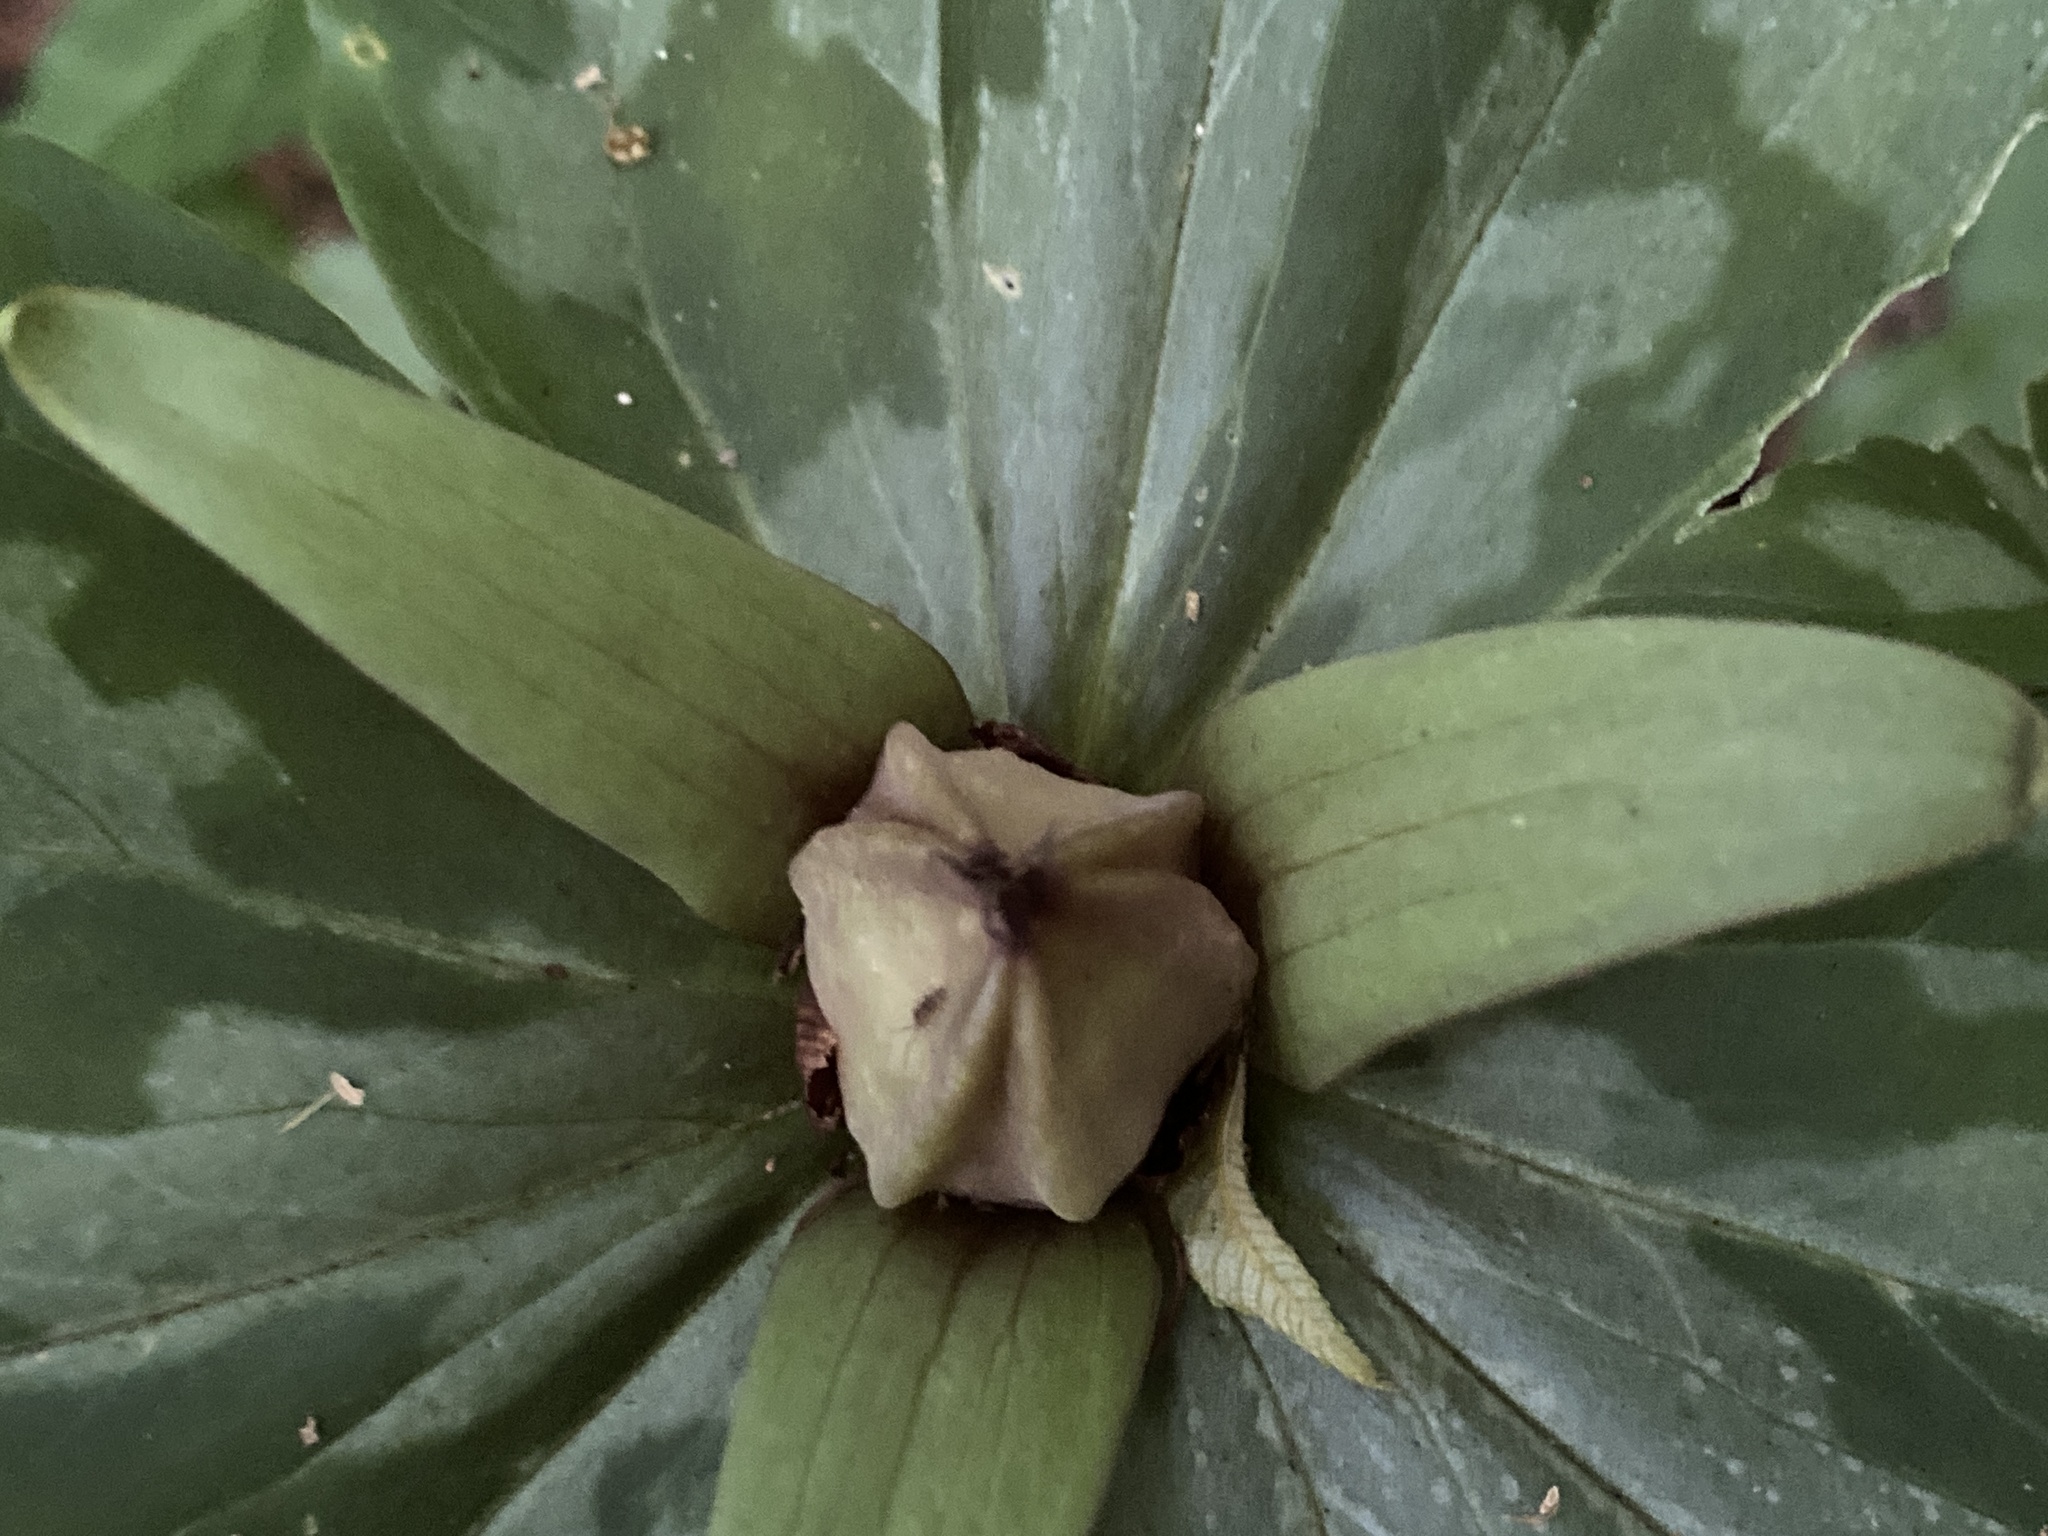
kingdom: Plantae
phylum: Tracheophyta
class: Liliopsida
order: Liliales
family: Melanthiaceae
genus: Trillium
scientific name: Trillium cuneatum
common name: Cuneate trillium
